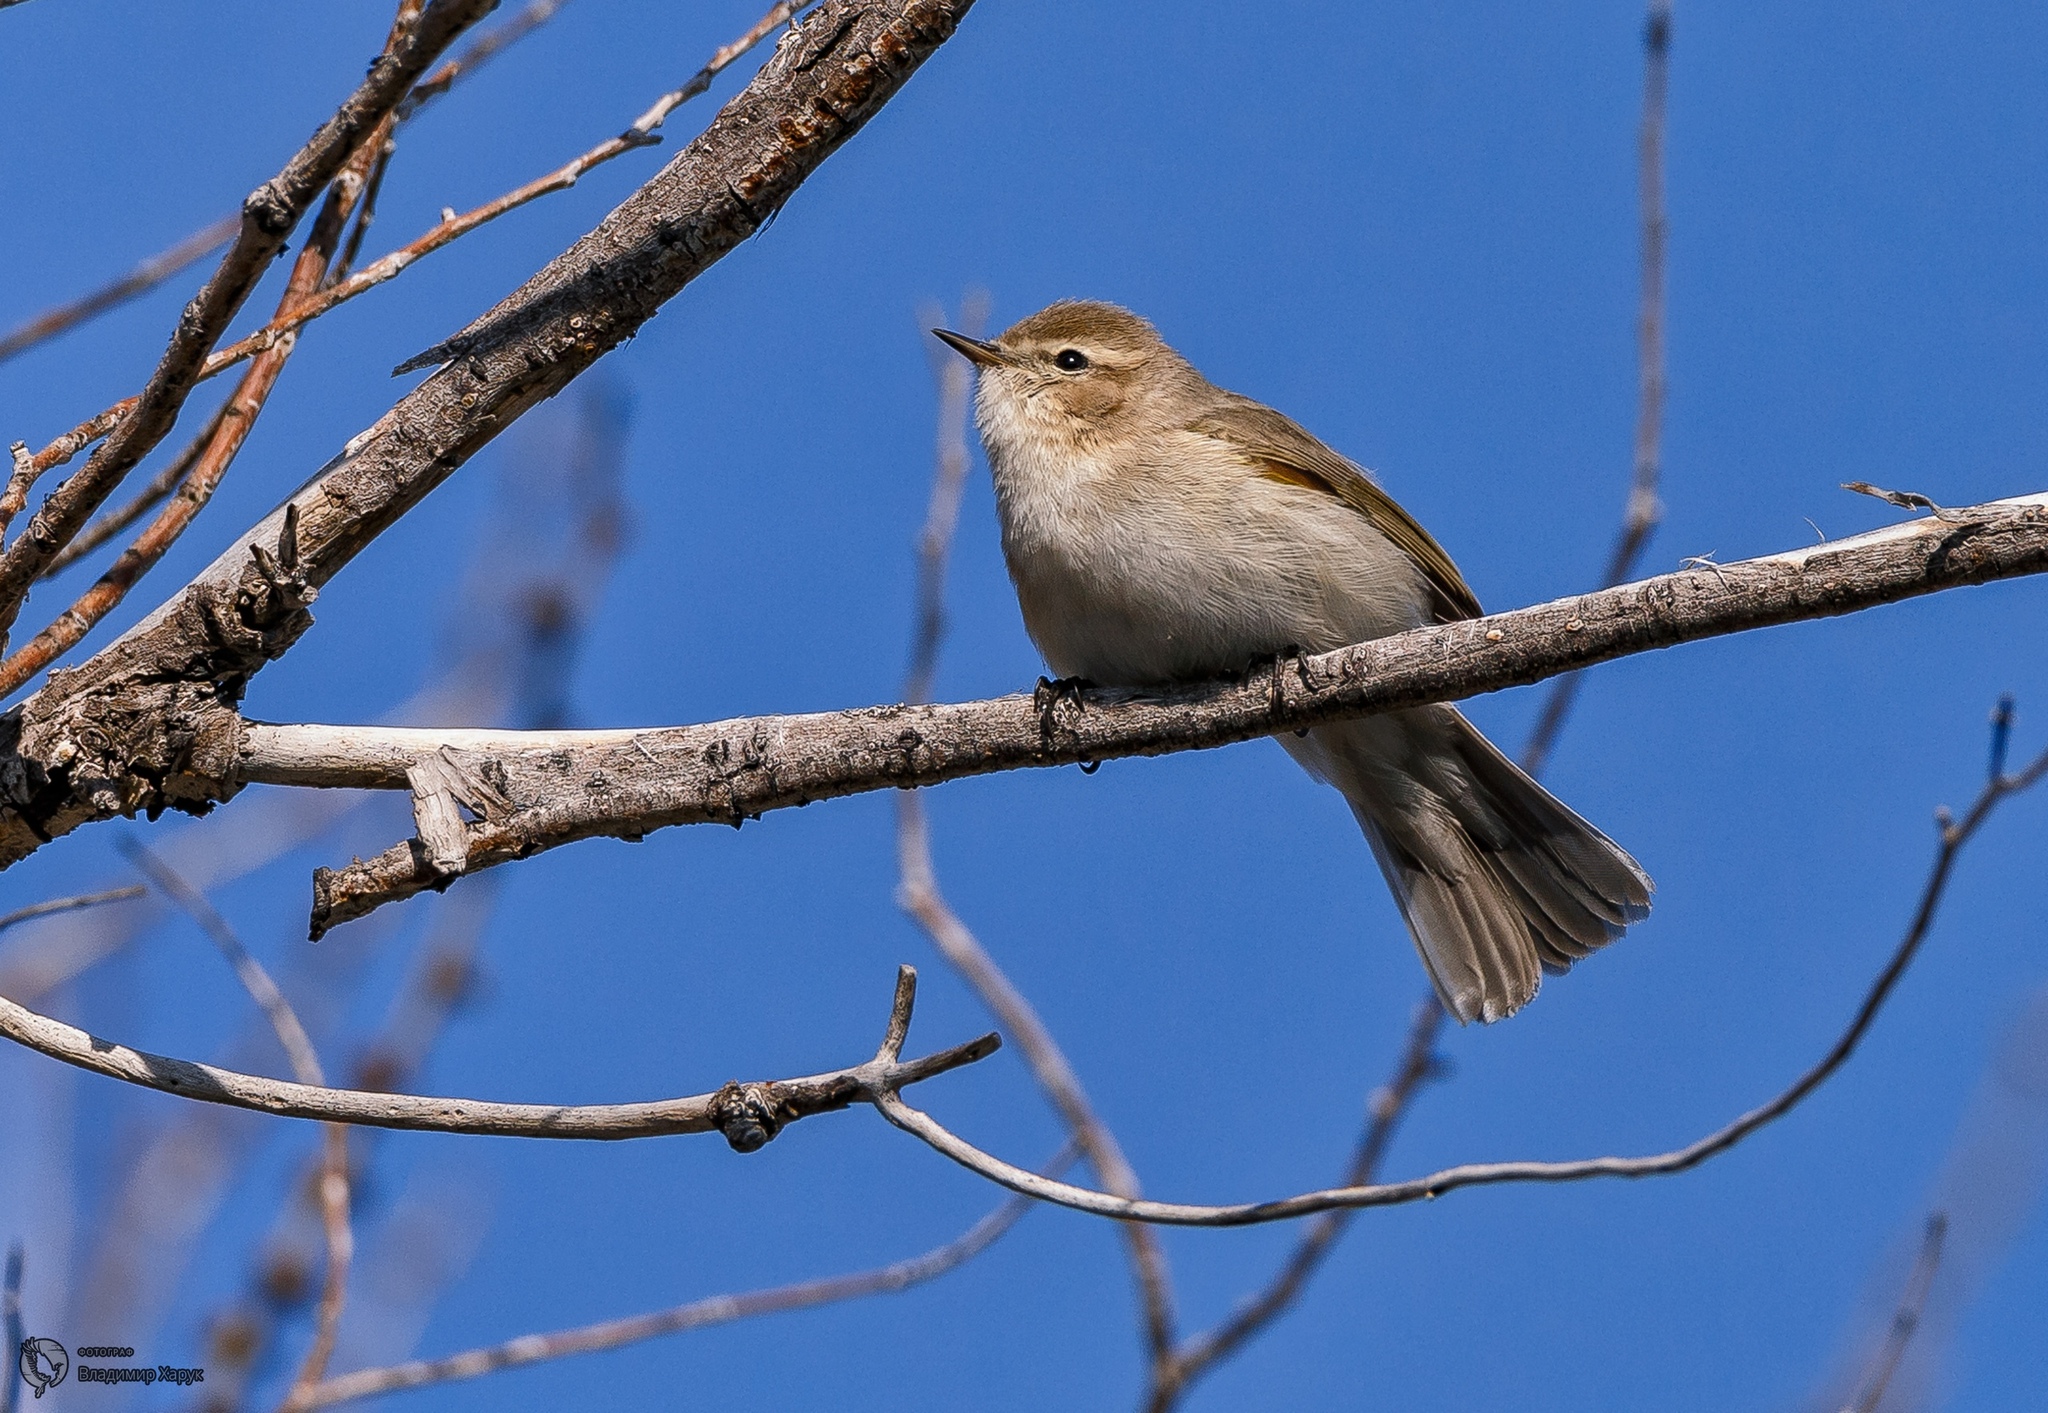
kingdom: Animalia
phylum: Chordata
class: Aves
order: Passeriformes
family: Phylloscopidae
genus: Phylloscopus
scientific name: Phylloscopus collybita
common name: Common chiffchaff
